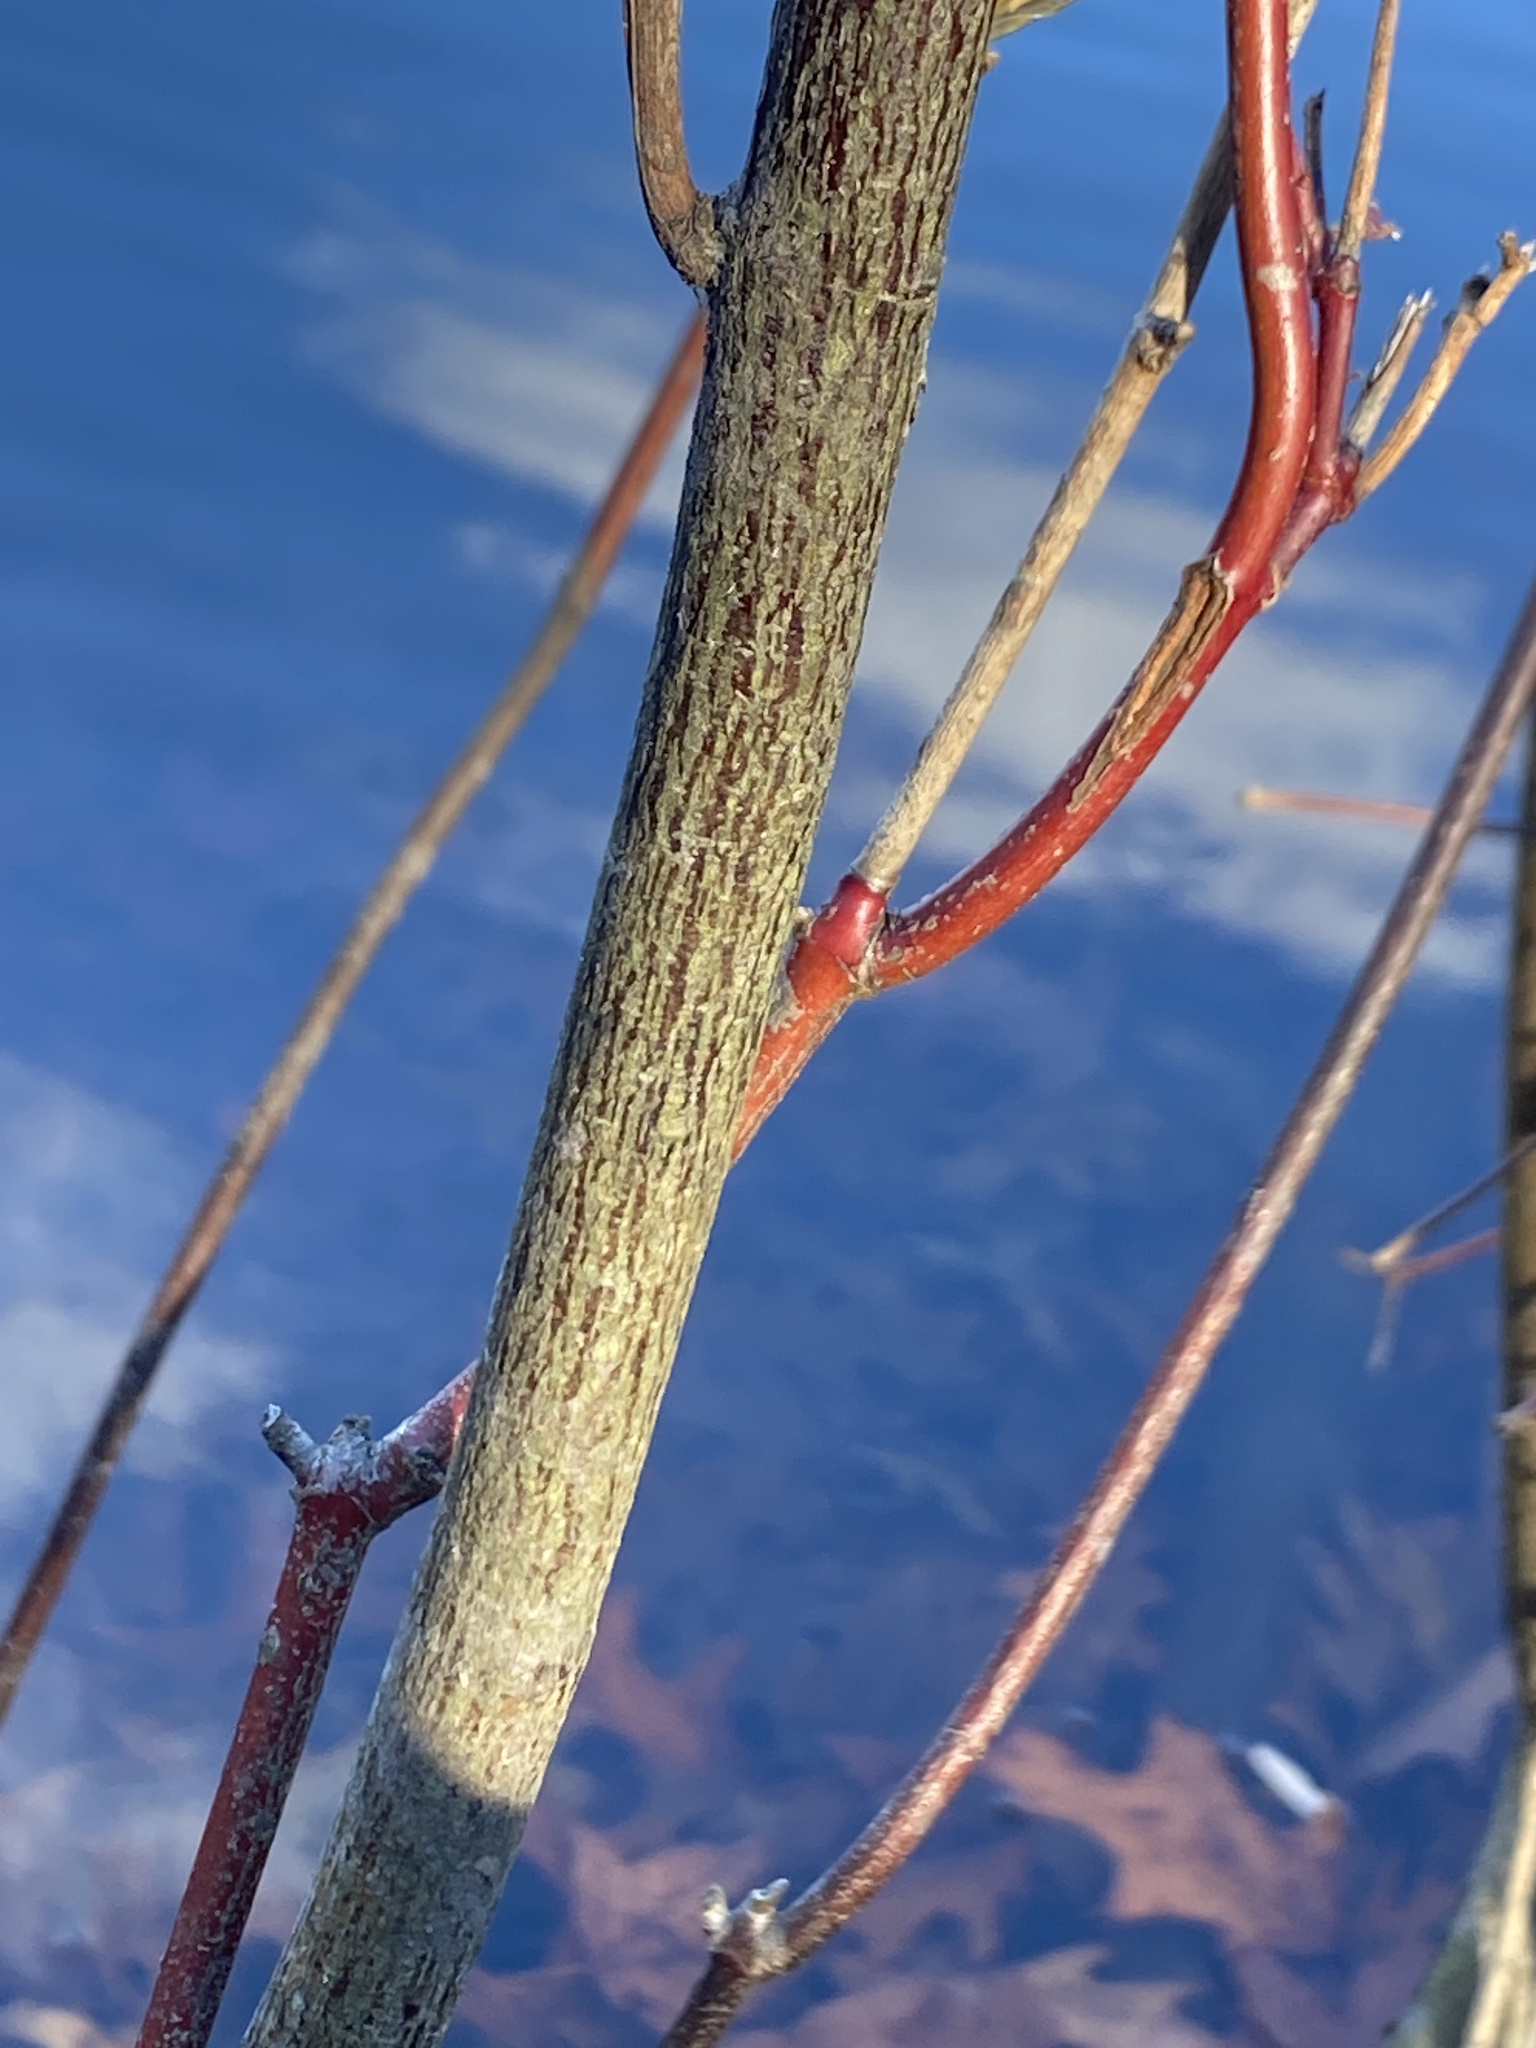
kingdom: Plantae
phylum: Tracheophyta
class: Magnoliopsida
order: Cornales
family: Cornaceae
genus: Cornus
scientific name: Cornus amomum
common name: Silky dogwood
